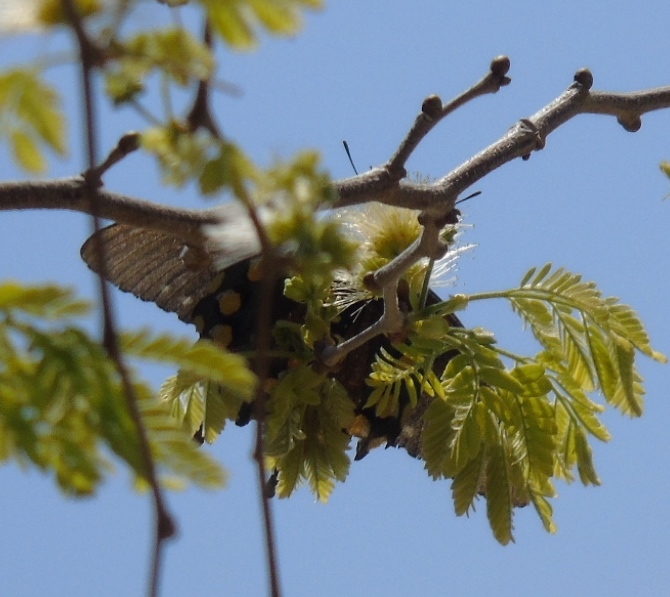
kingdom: Animalia
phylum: Arthropoda
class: Insecta
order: Lepidoptera
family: Papilionidae
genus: Battus
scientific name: Battus philenor
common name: Pipevine swallowtail
